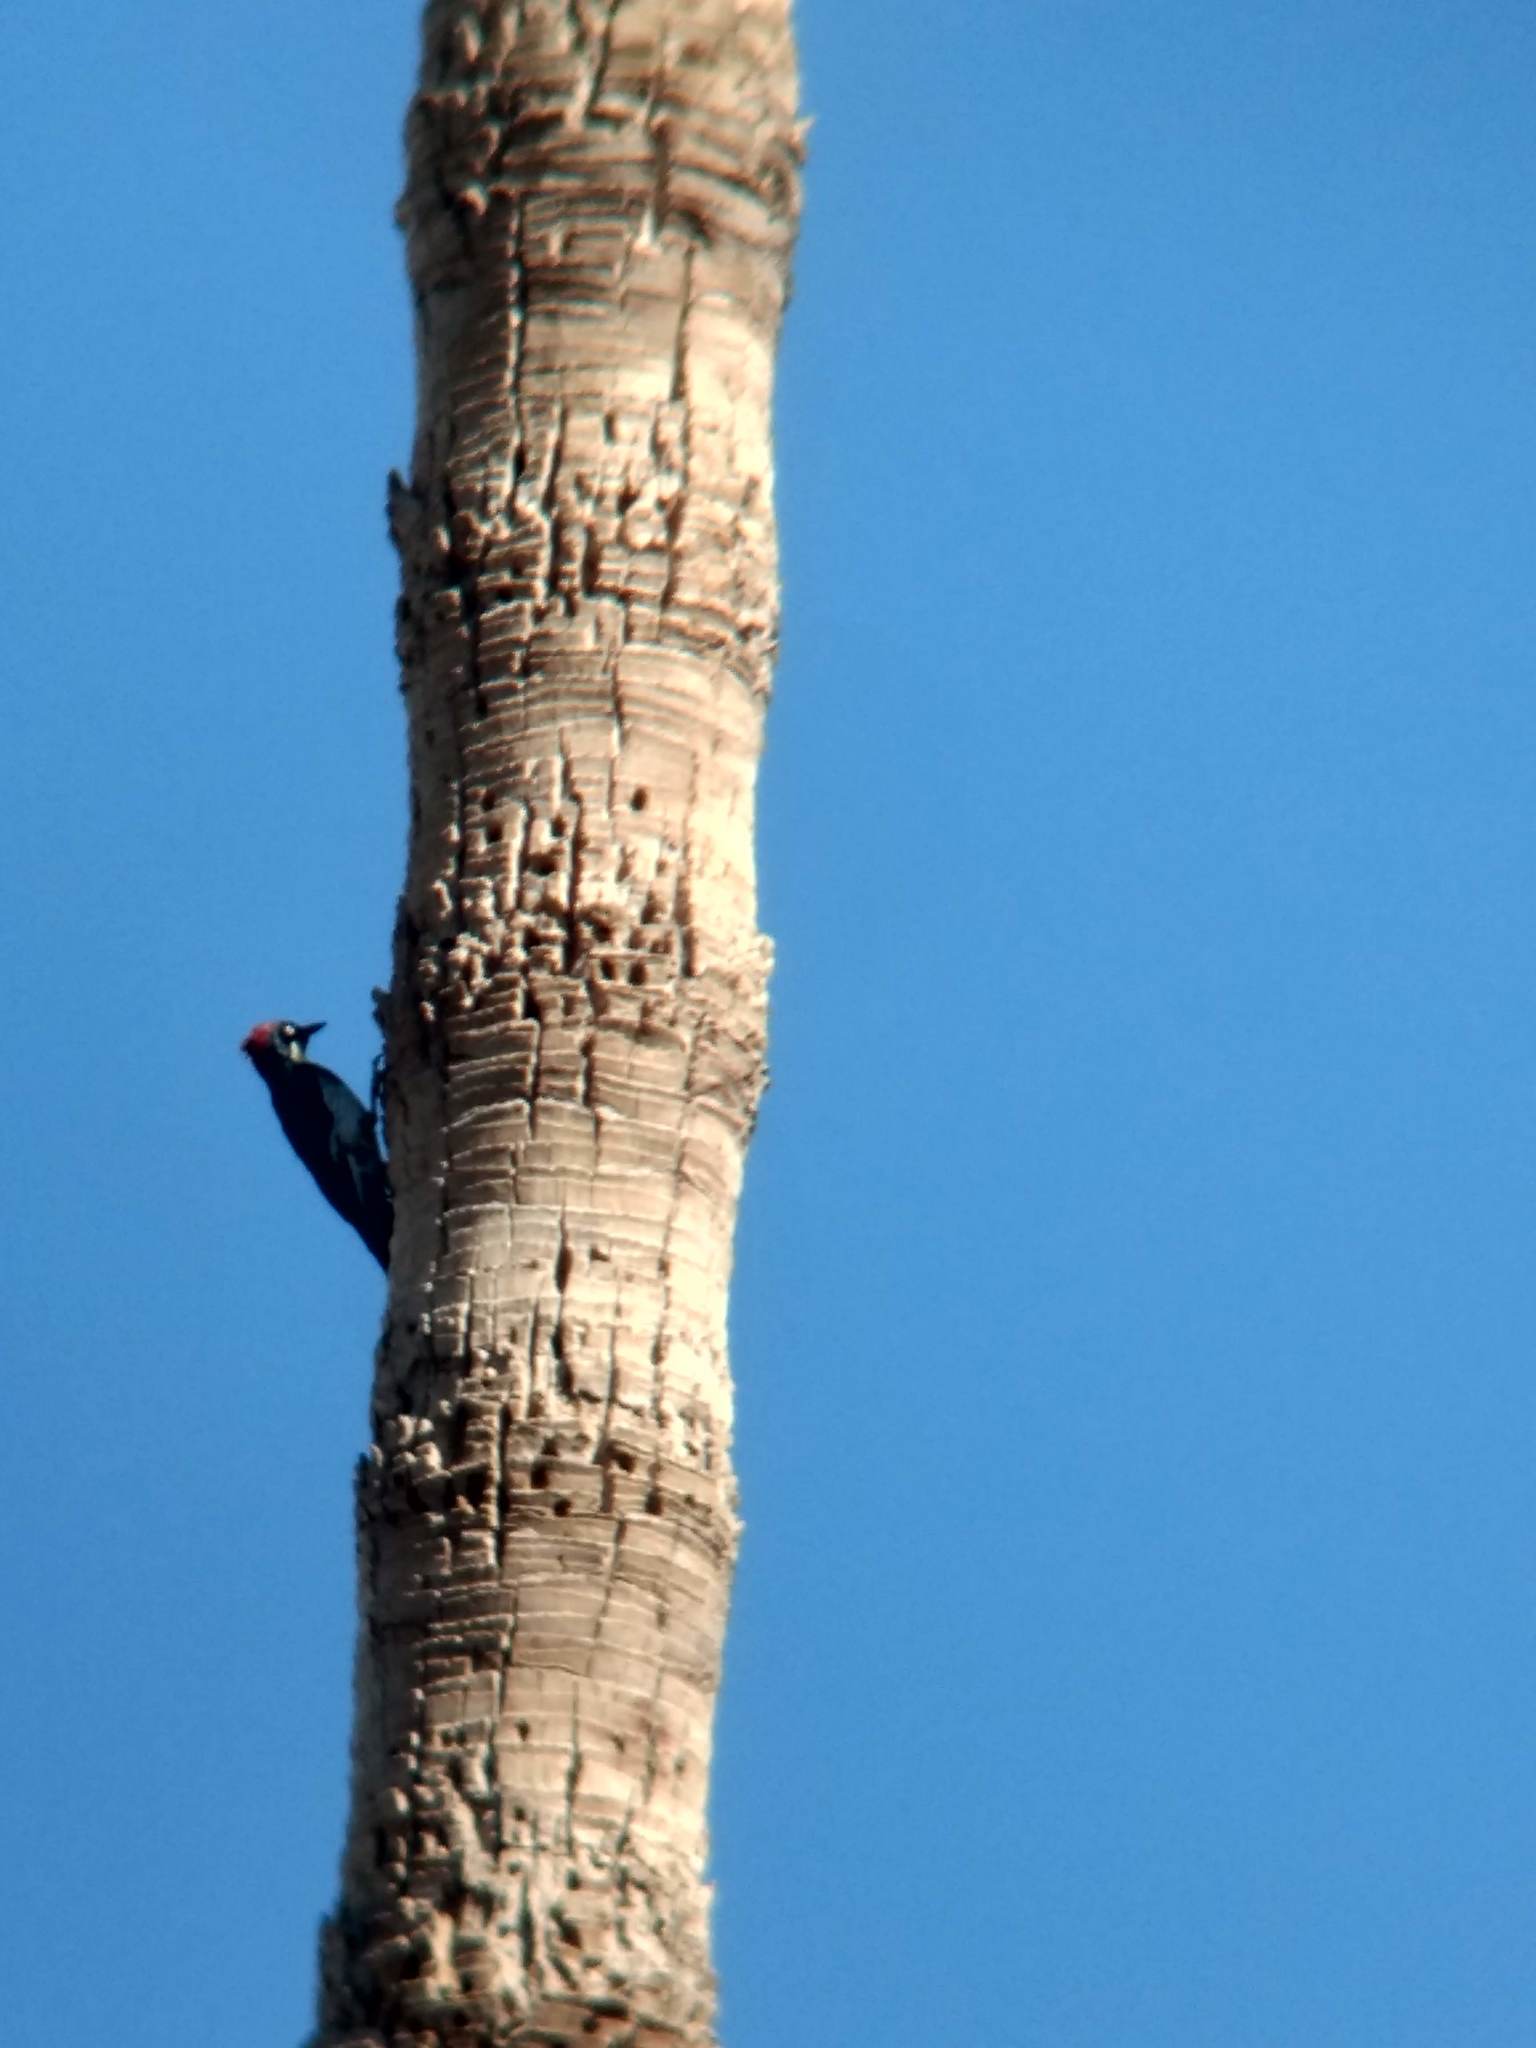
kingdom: Animalia
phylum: Chordata
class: Aves
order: Piciformes
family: Picidae
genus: Melanerpes
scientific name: Melanerpes formicivorus
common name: Acorn woodpecker
